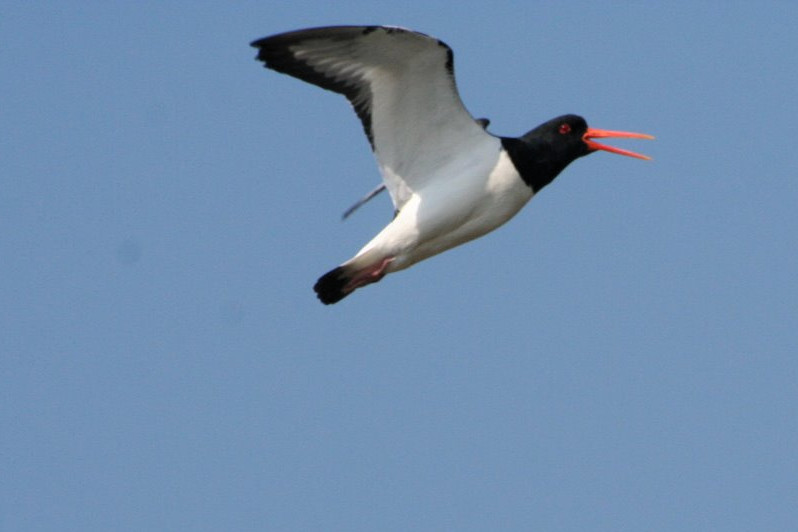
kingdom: Animalia
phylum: Chordata
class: Aves
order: Charadriiformes
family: Haematopodidae
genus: Haematopus
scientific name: Haematopus ostralegus
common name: Eurasian oystercatcher
